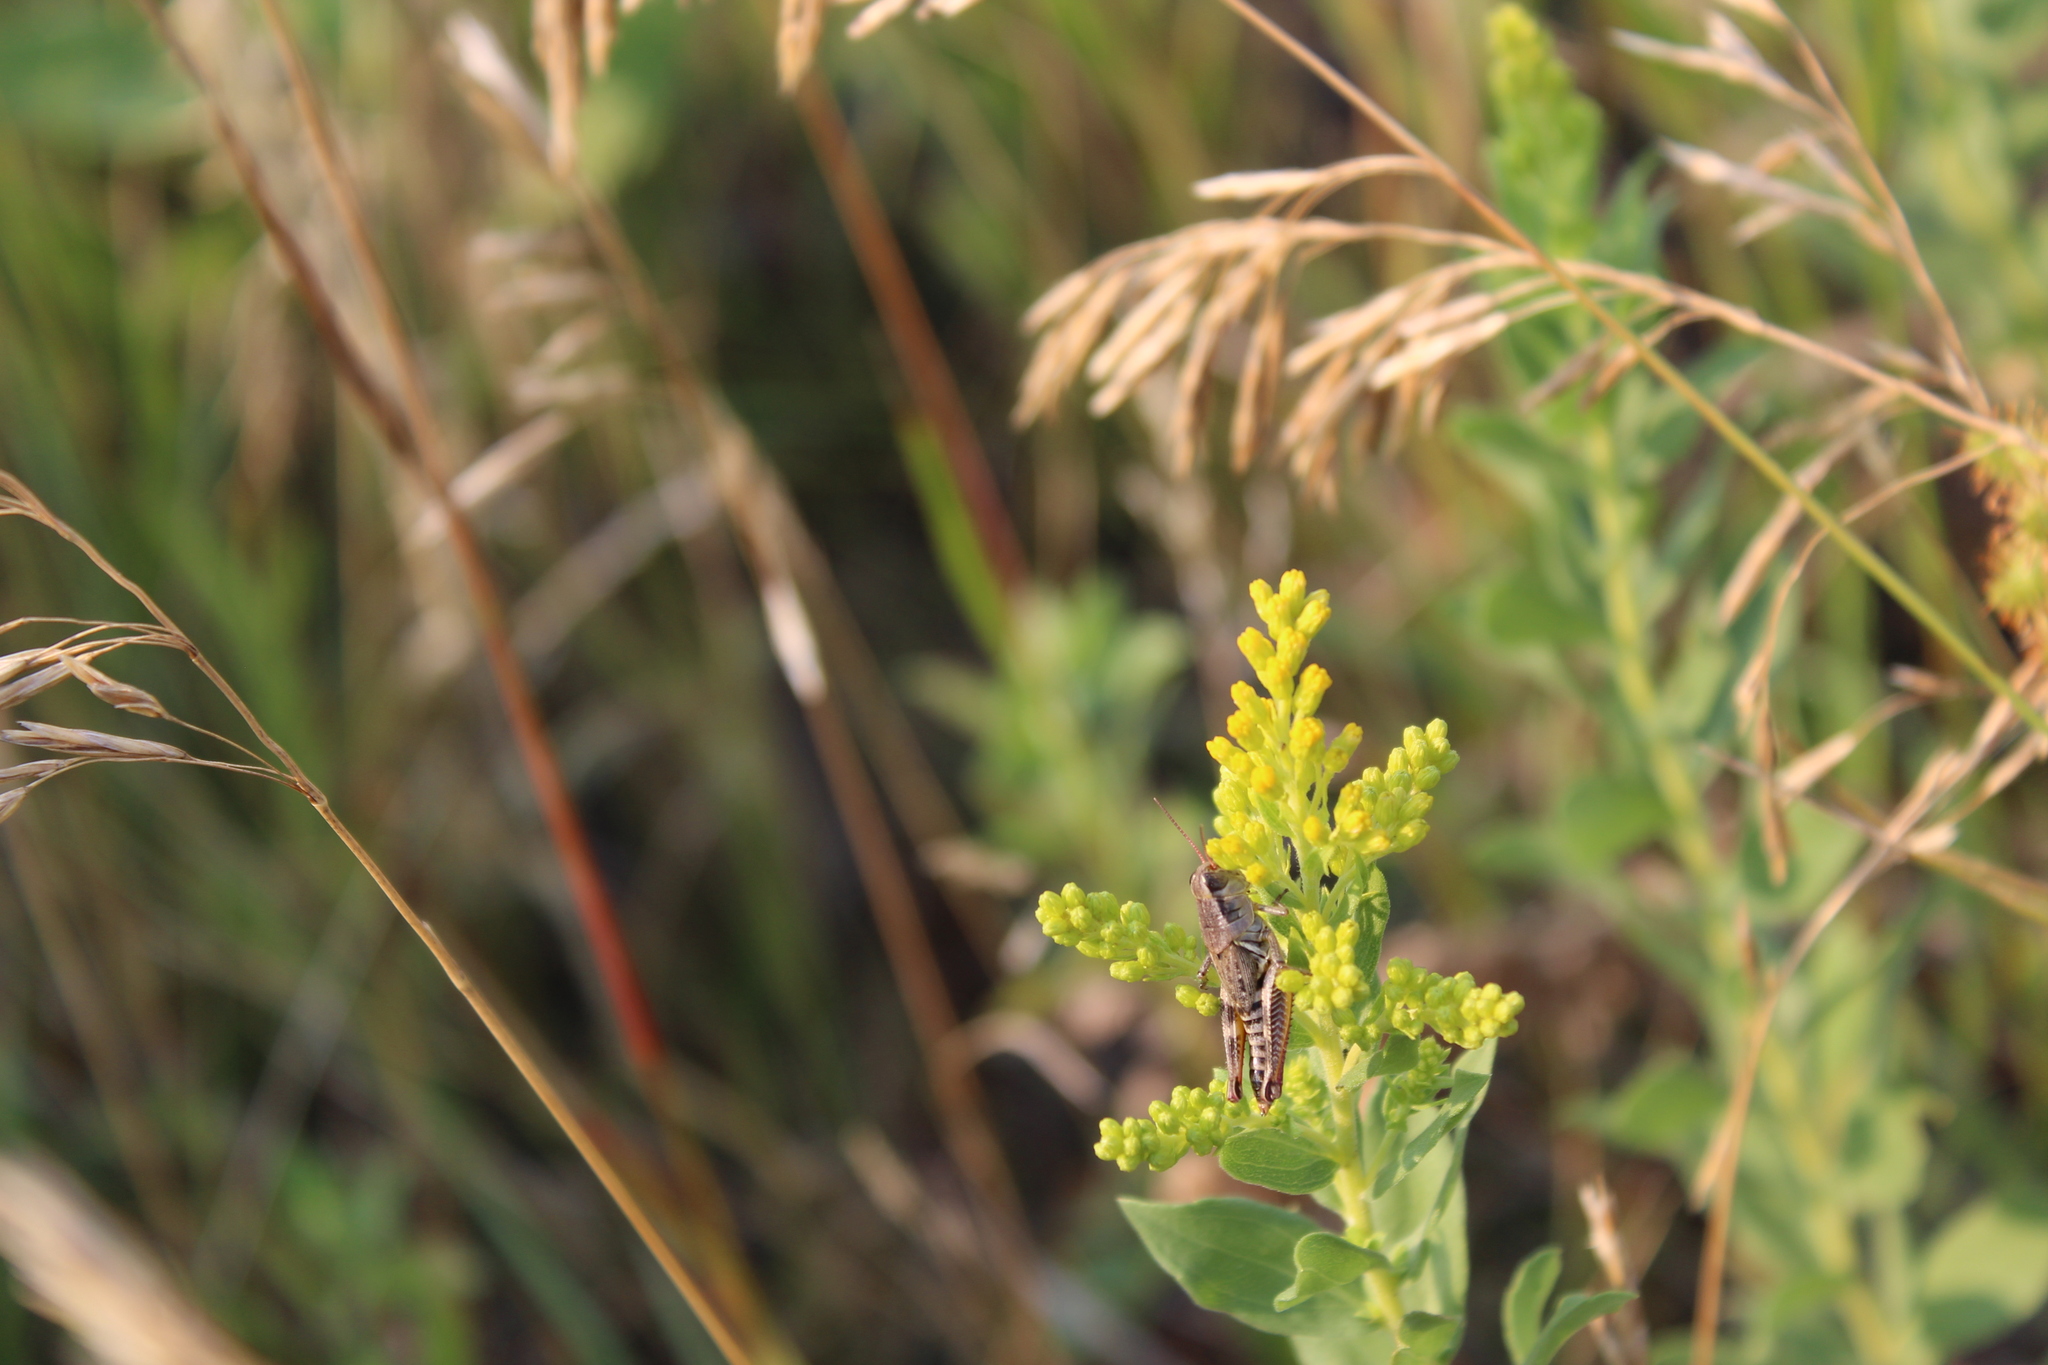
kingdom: Animalia
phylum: Arthropoda
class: Insecta
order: Orthoptera
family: Acrididae
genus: Melanoplus
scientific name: Melanoplus dawsoni
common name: Dawson grasshopper
